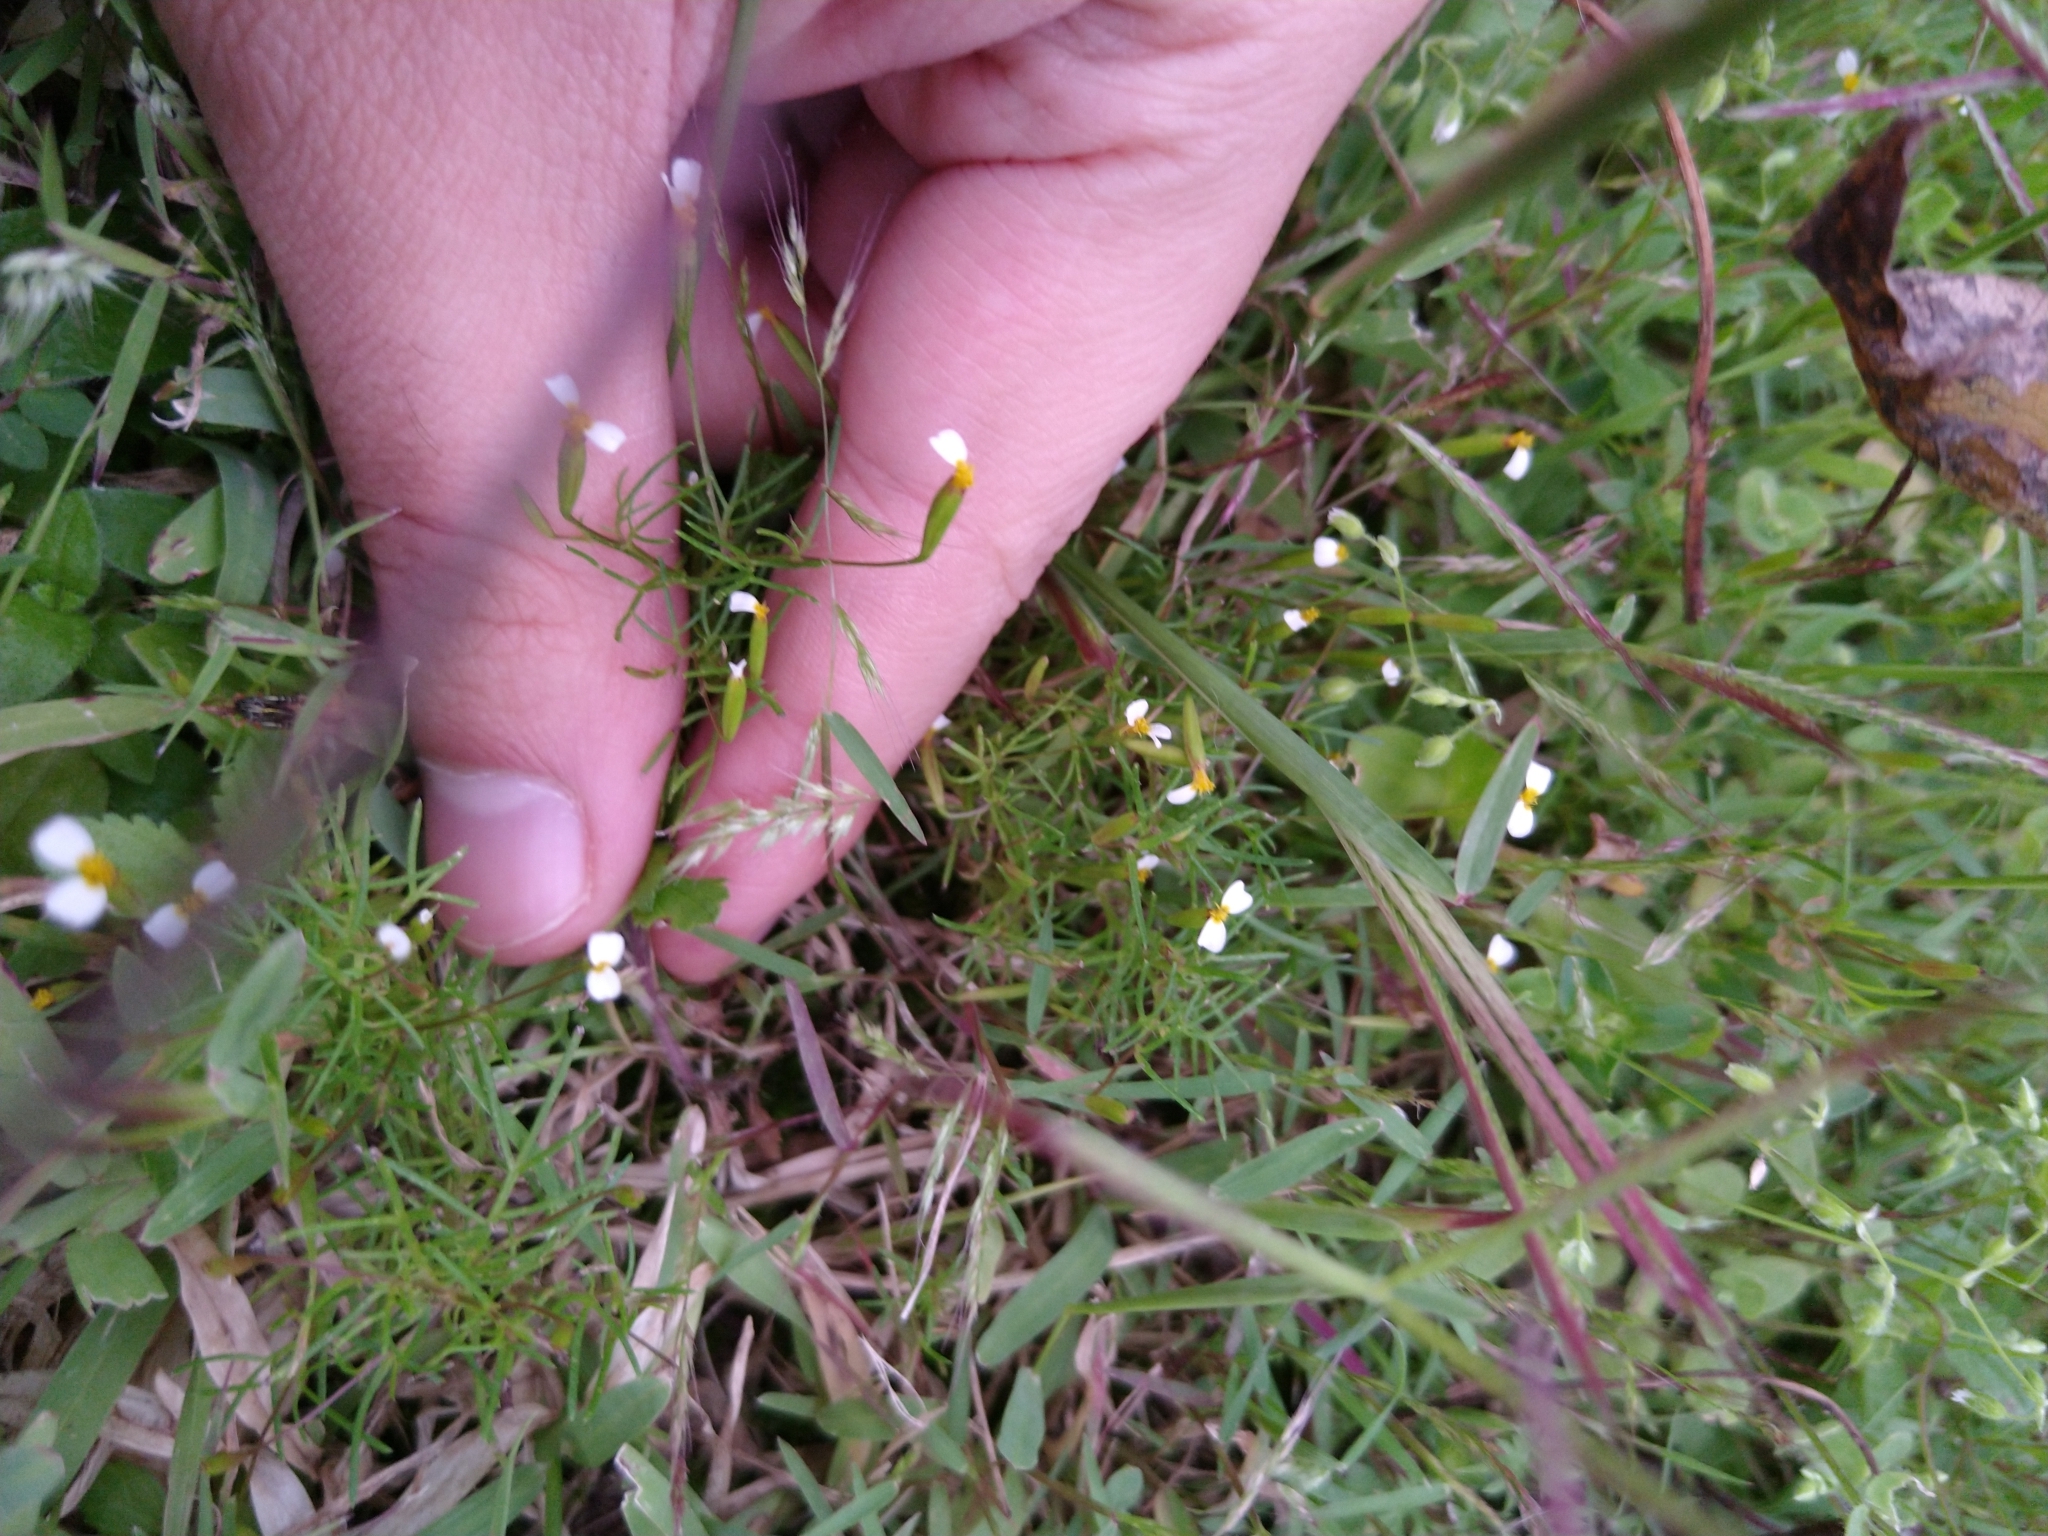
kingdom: Plantae
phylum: Tracheophyta
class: Magnoliopsida
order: Asterales
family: Asteraceae
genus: Tagetes
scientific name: Tagetes filifolia
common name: Lesser marigold
